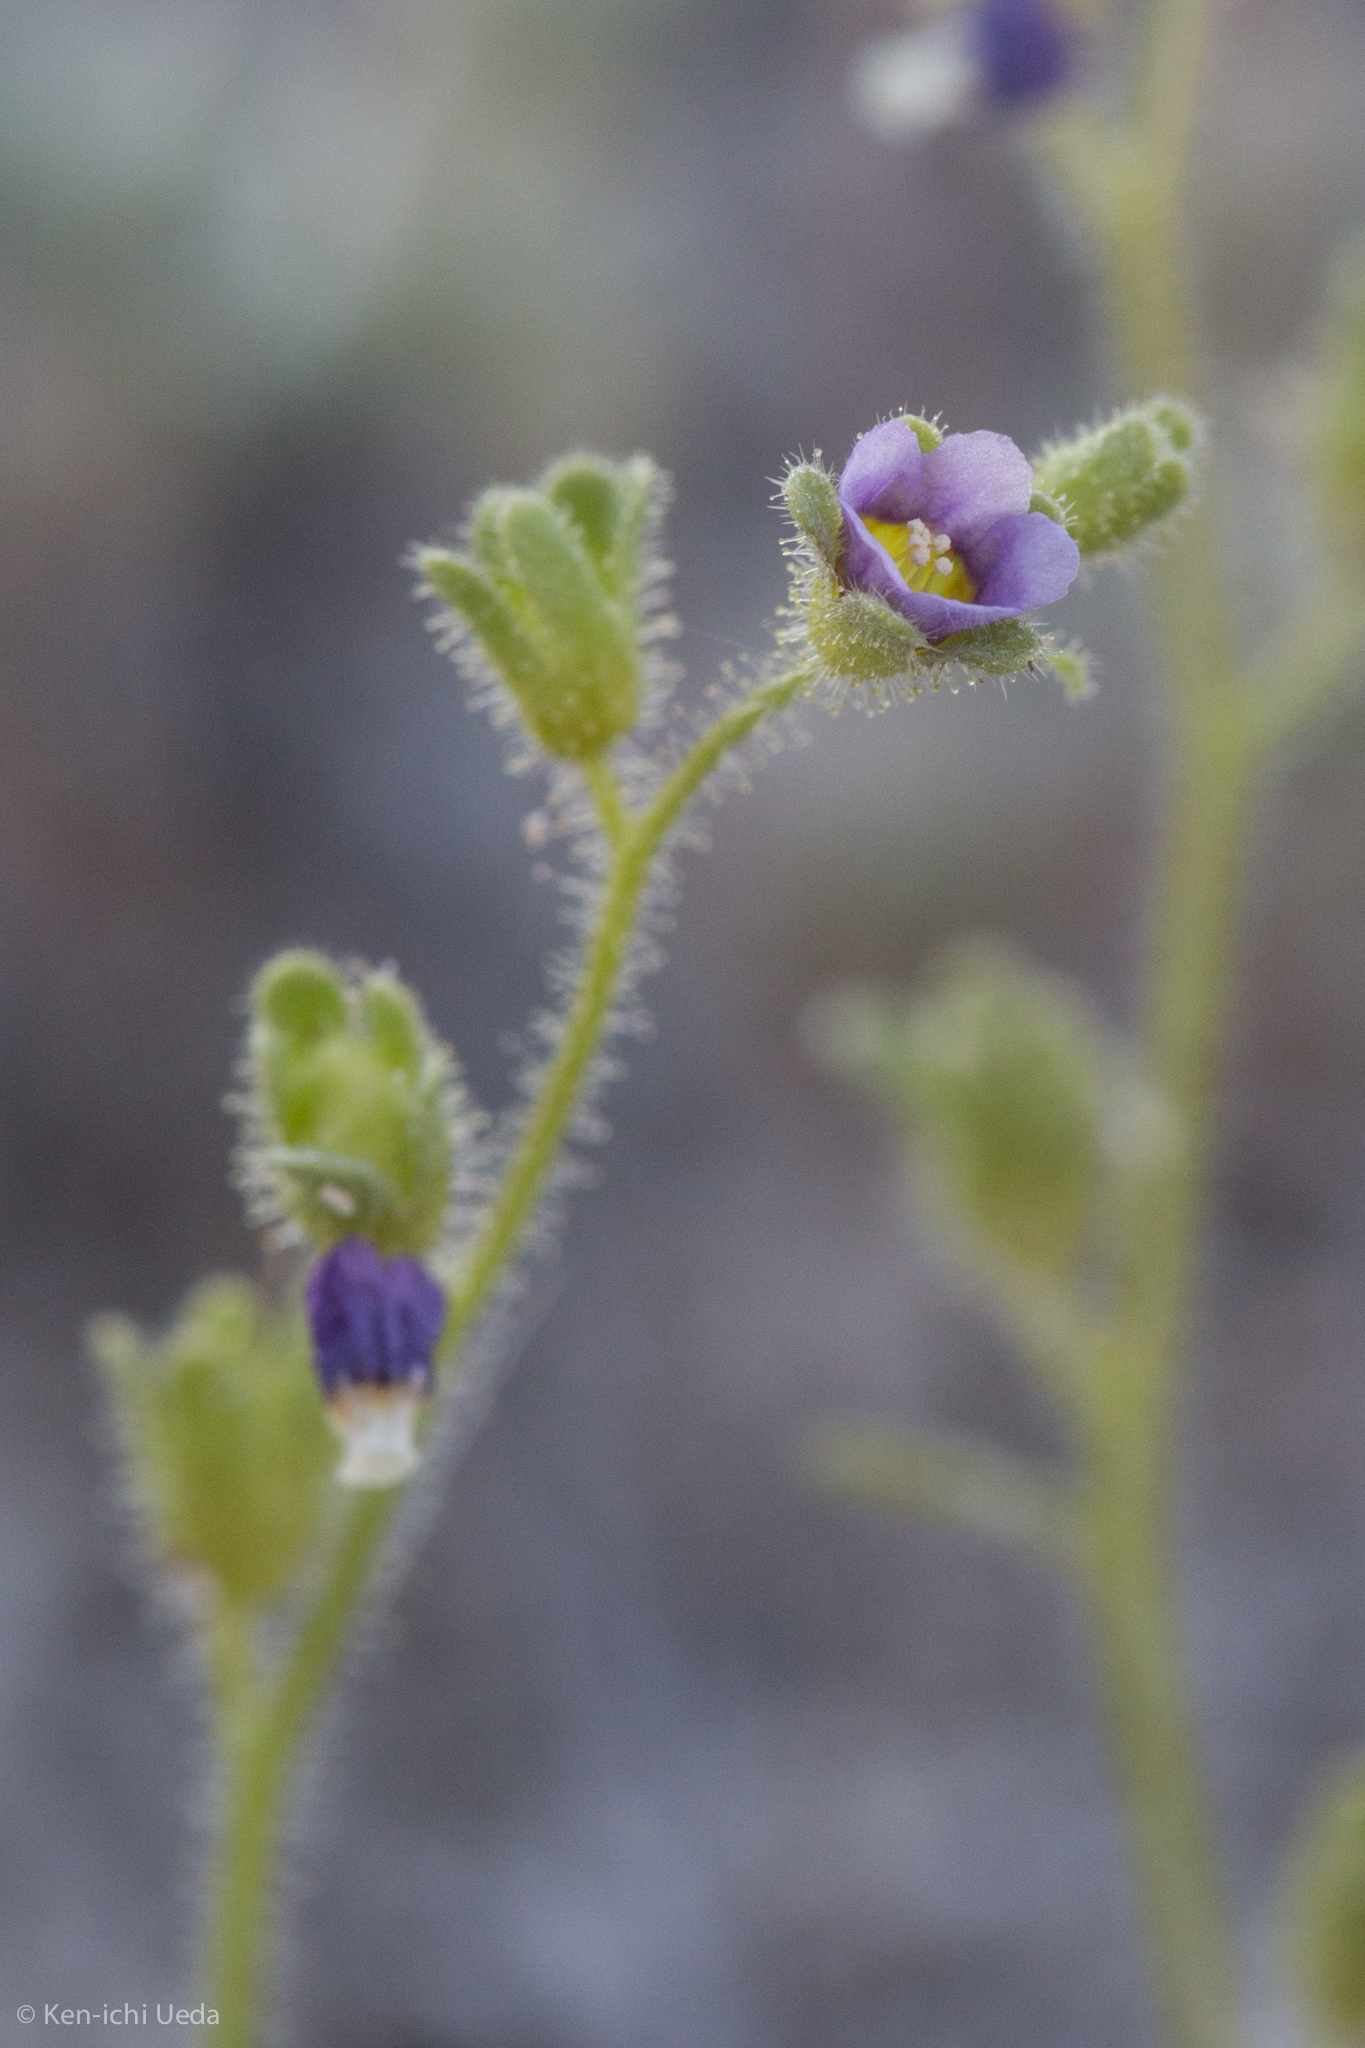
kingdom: Plantae
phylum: Tracheophyta
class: Magnoliopsida
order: Boraginales
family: Hydrophyllaceae
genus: Eucrypta
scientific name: Eucrypta micrantha
